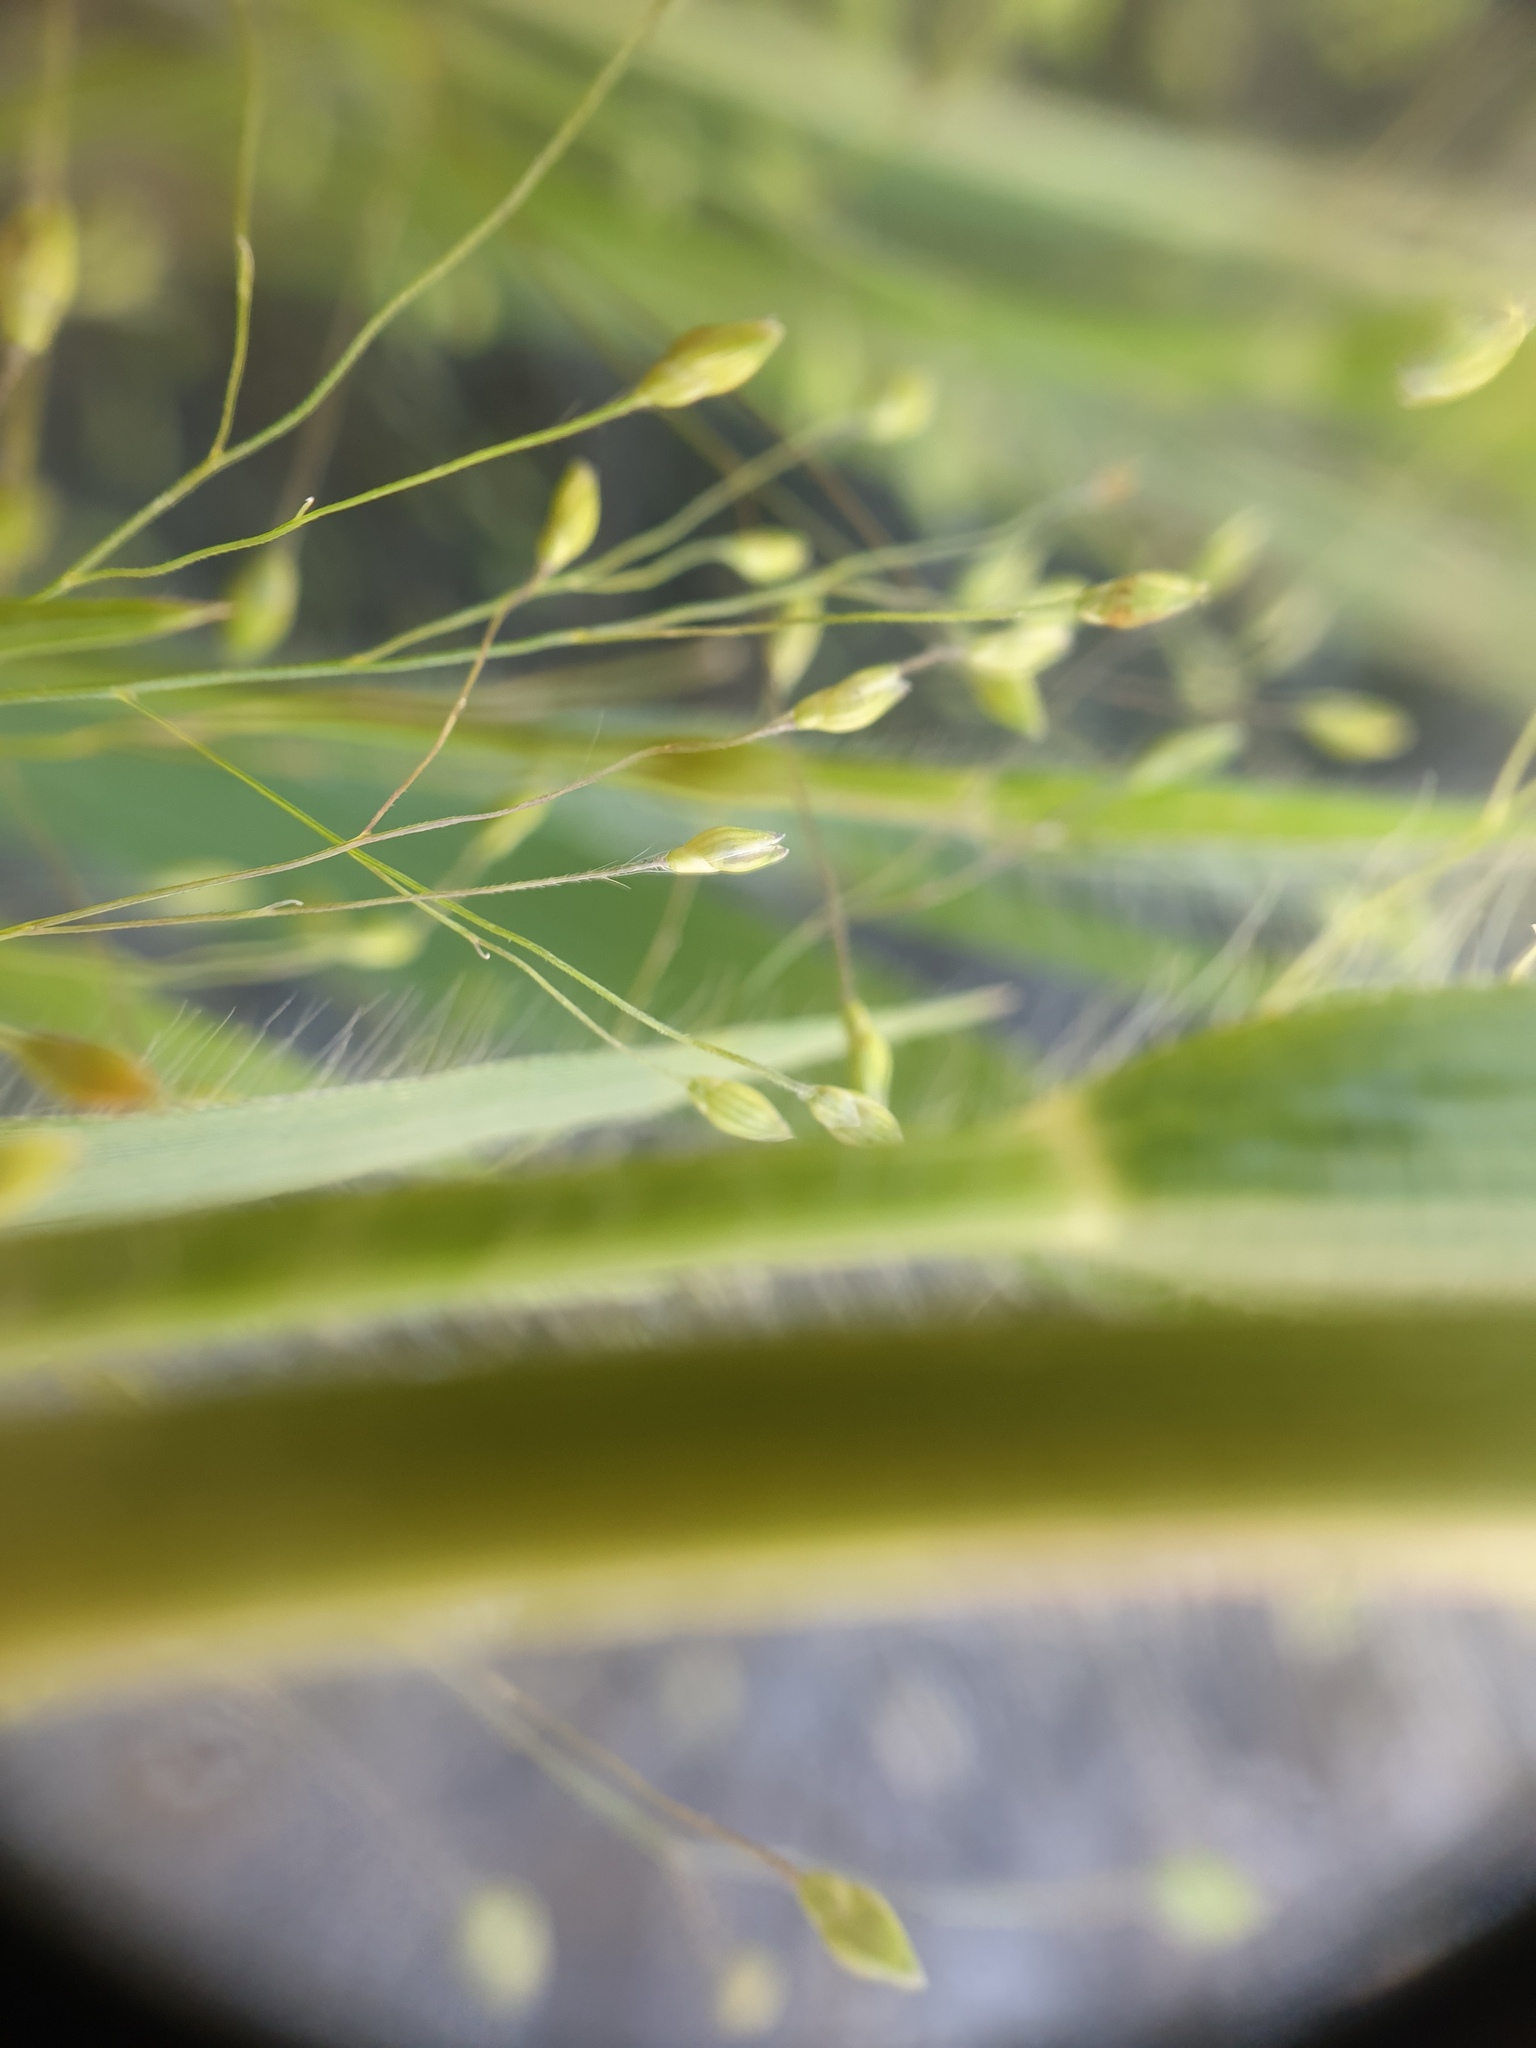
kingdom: Plantae
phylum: Tracheophyta
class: Liliopsida
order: Poales
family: Poaceae
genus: Panicum
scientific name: Panicum philadelphicum
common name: Philadelphia witchgrass
